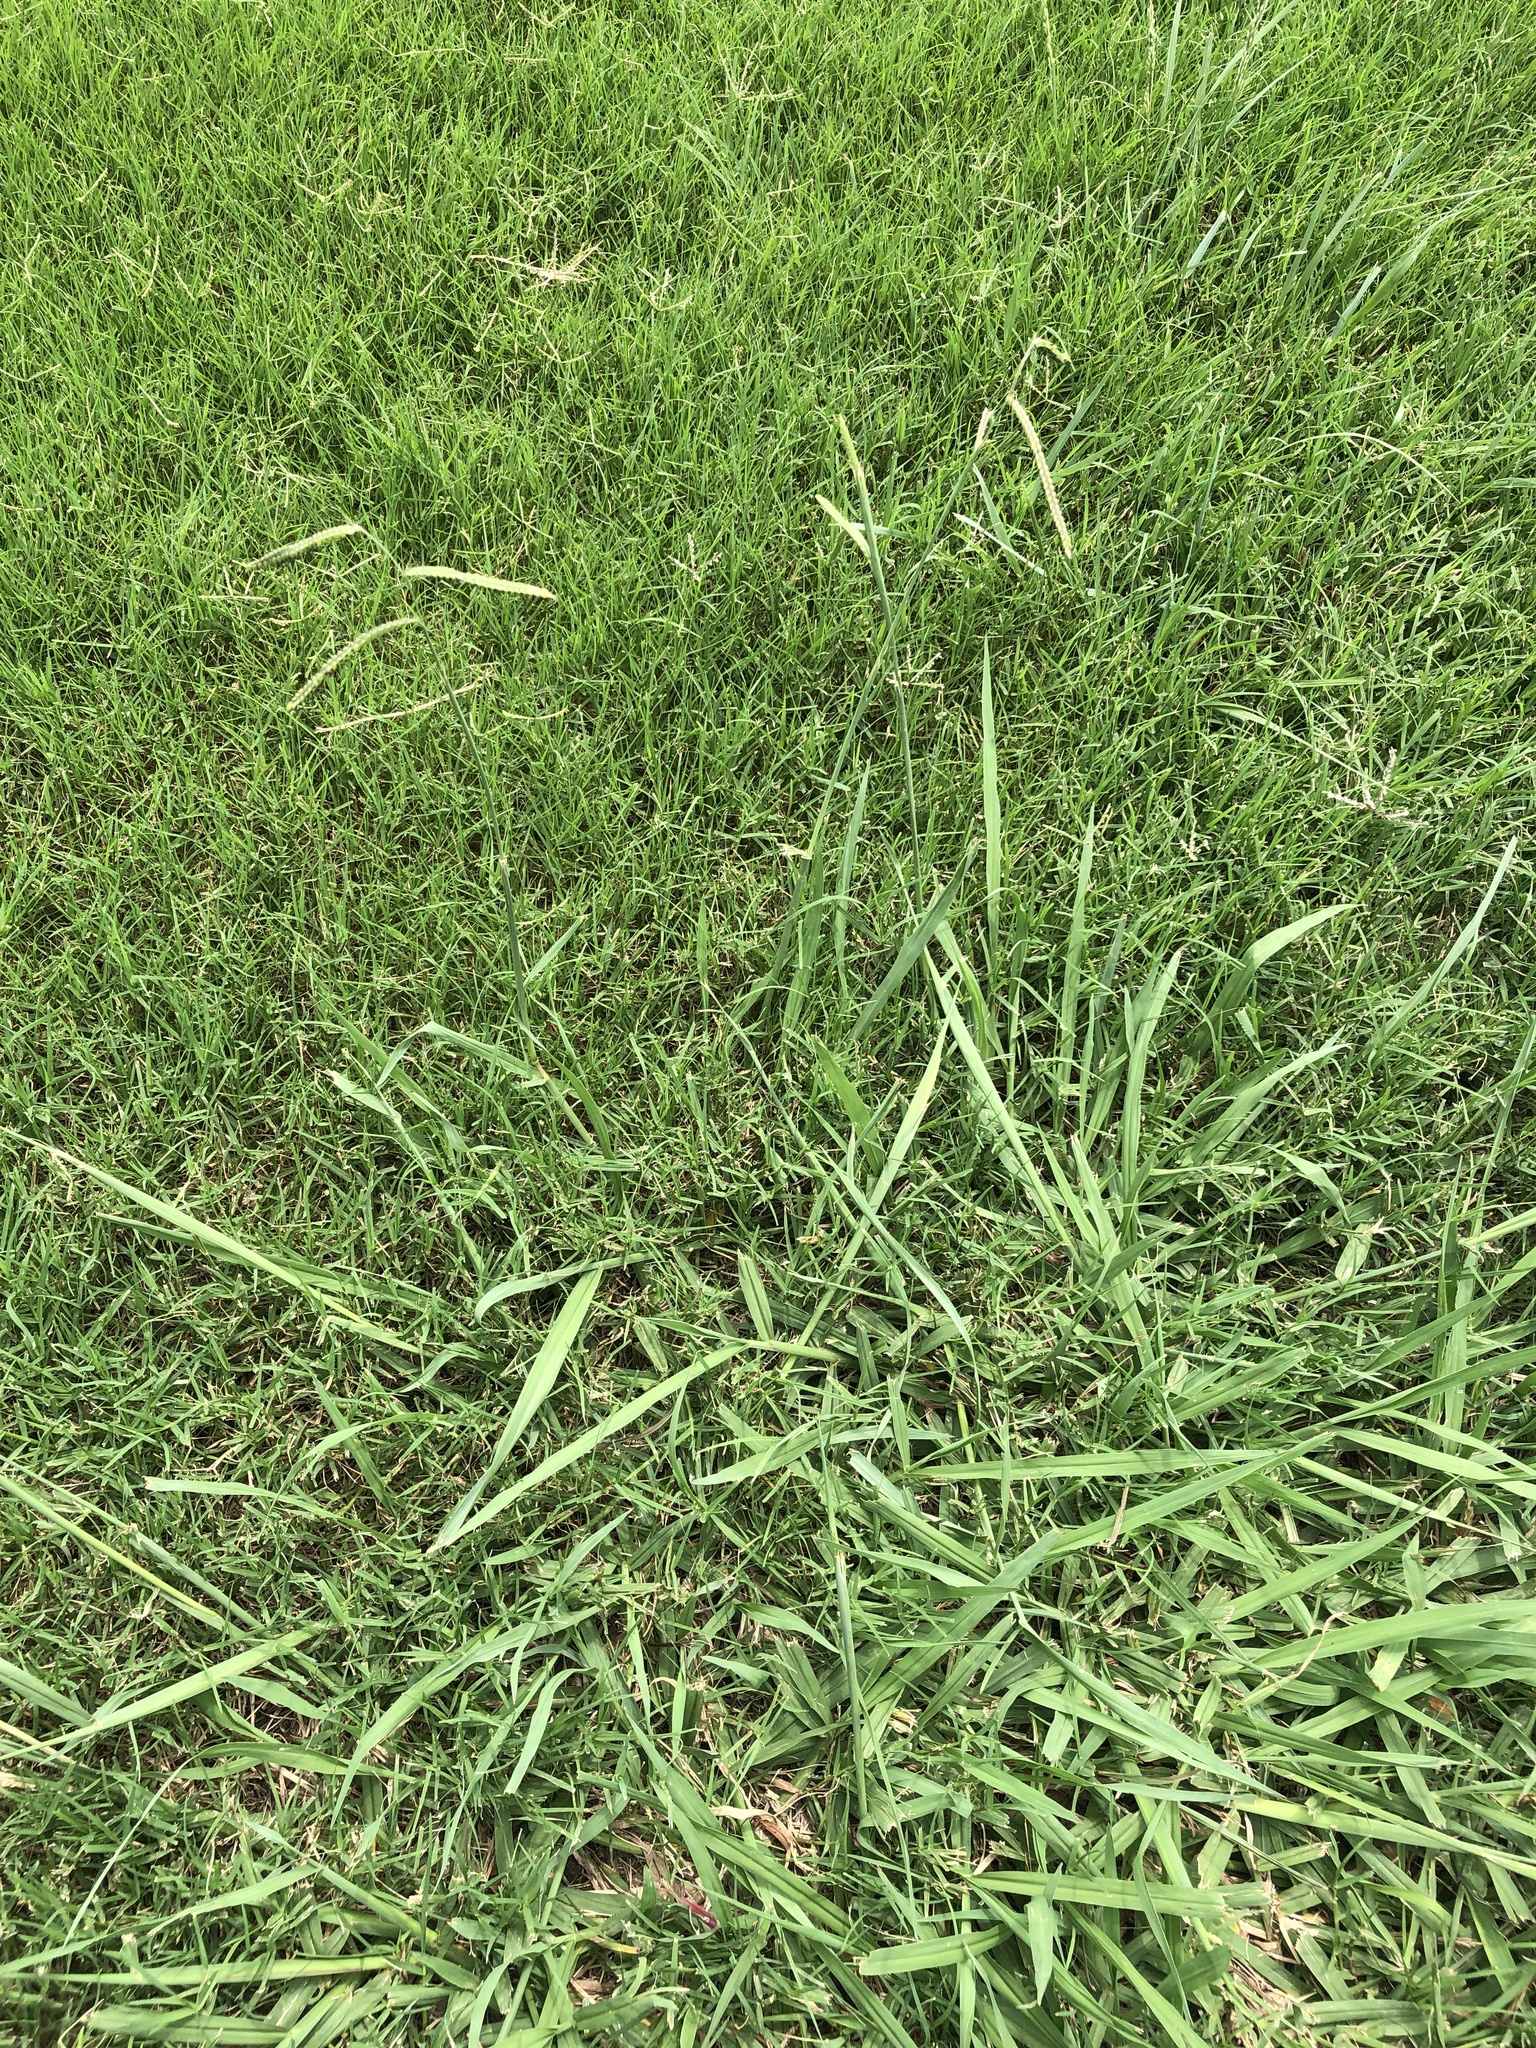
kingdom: Plantae
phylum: Tracheophyta
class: Liliopsida
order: Poales
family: Poaceae
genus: Paspalum
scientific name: Paspalum dilatatum
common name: Dallisgrass
